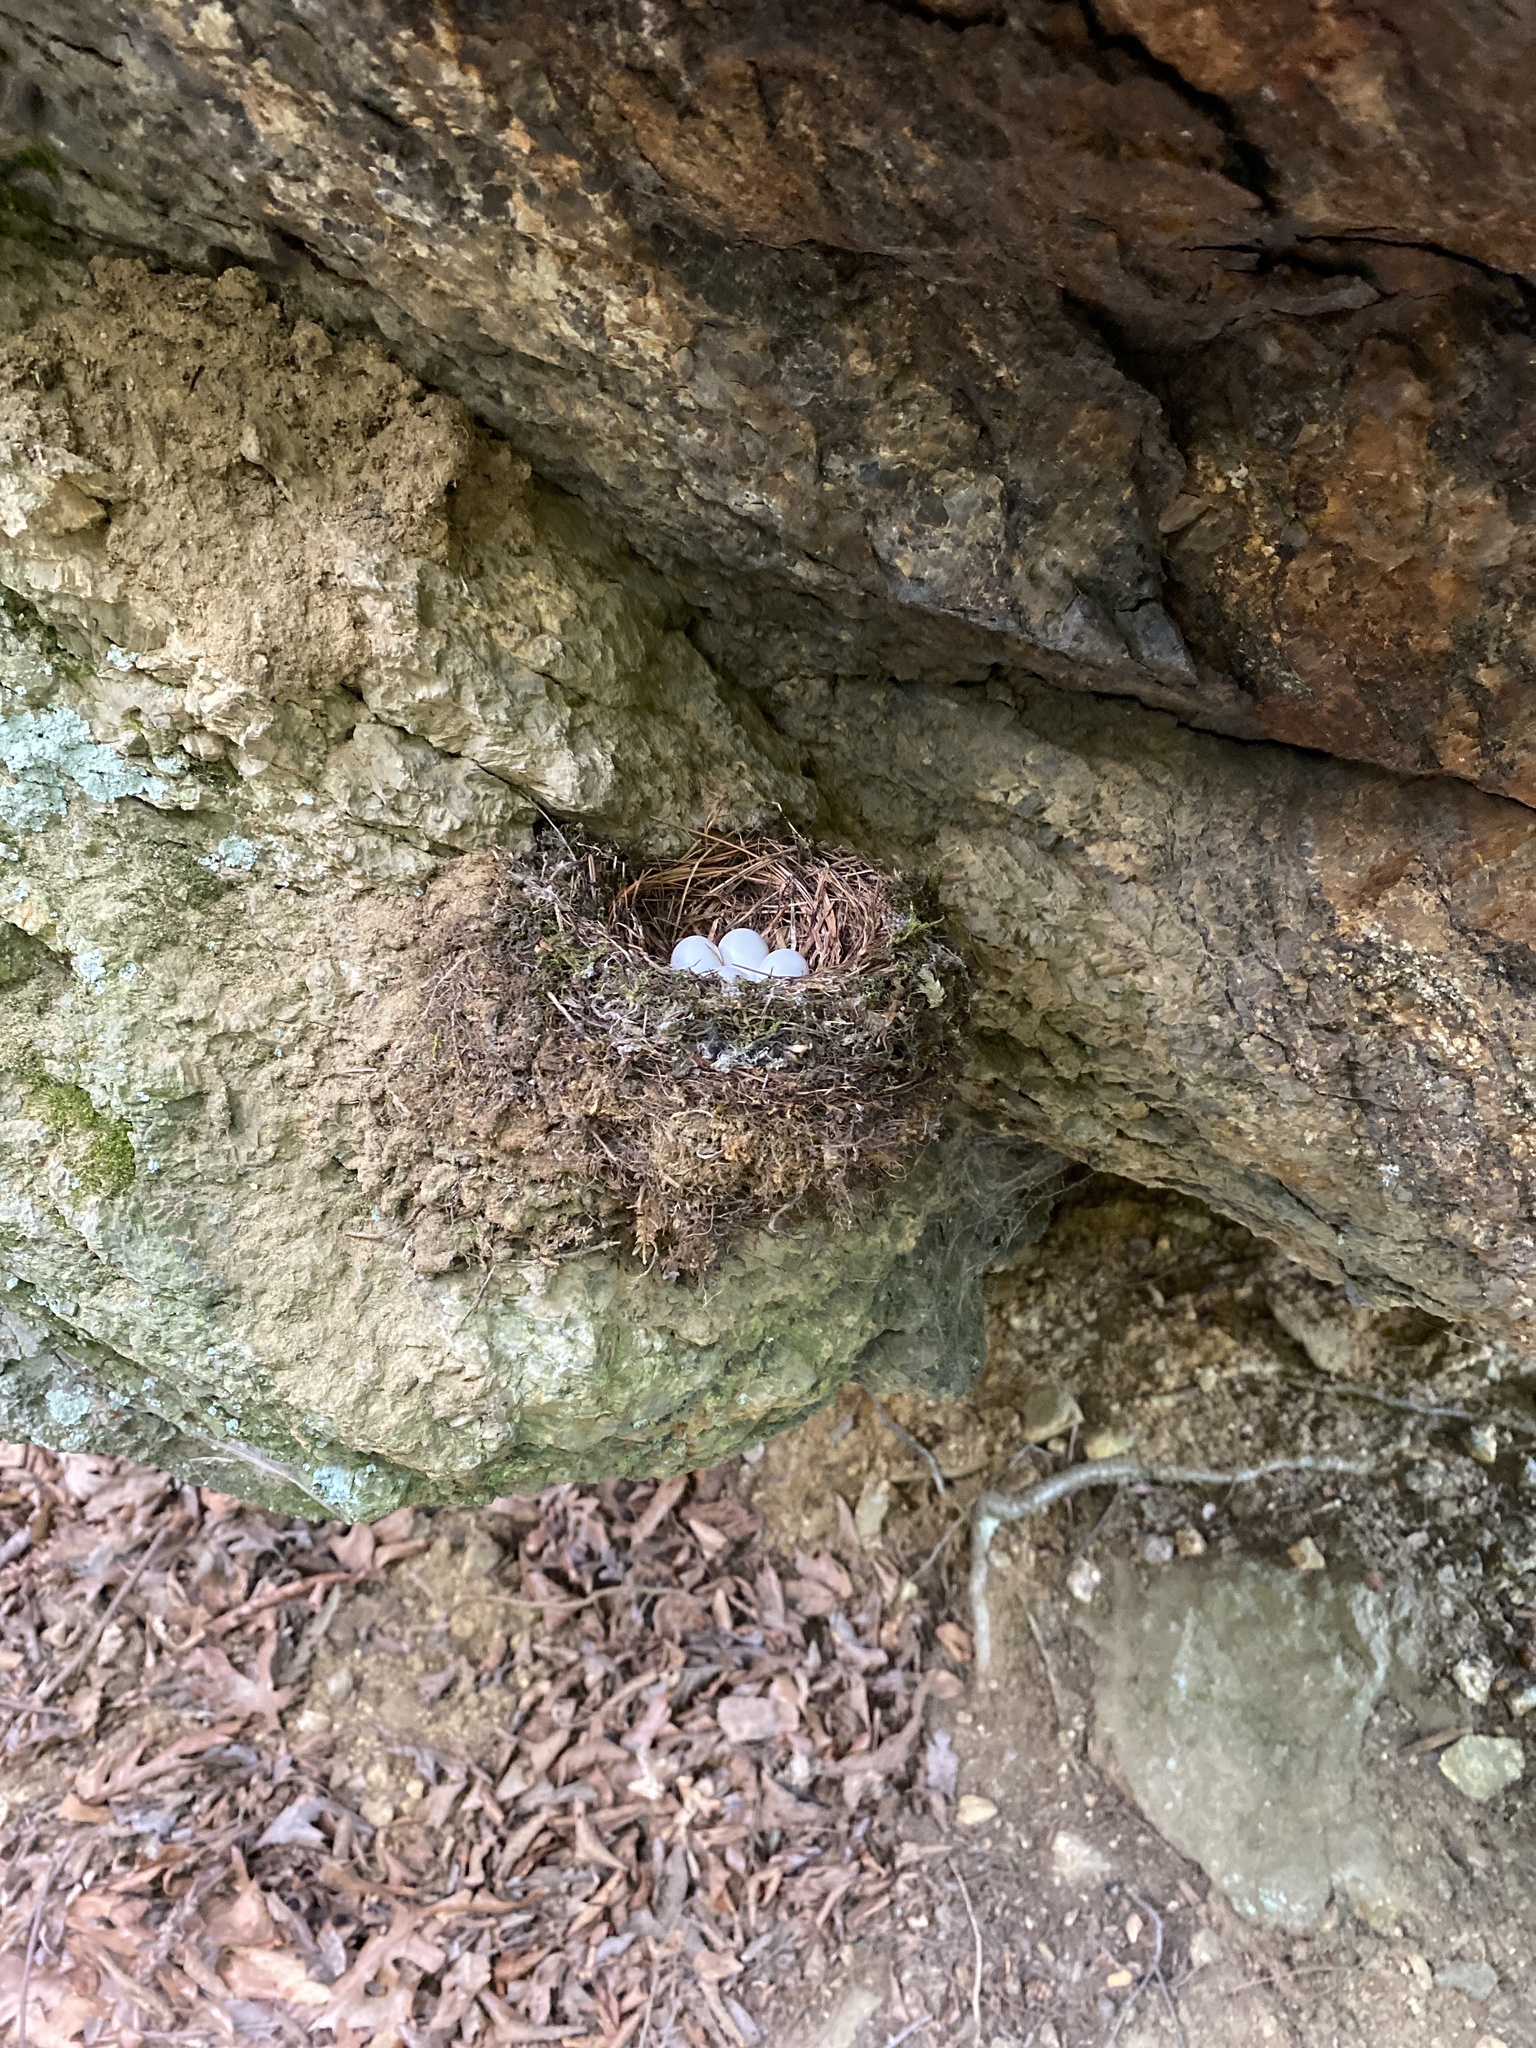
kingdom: Animalia
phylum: Chordata
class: Aves
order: Passeriformes
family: Tyrannidae
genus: Sayornis
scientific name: Sayornis phoebe
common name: Eastern phoebe
